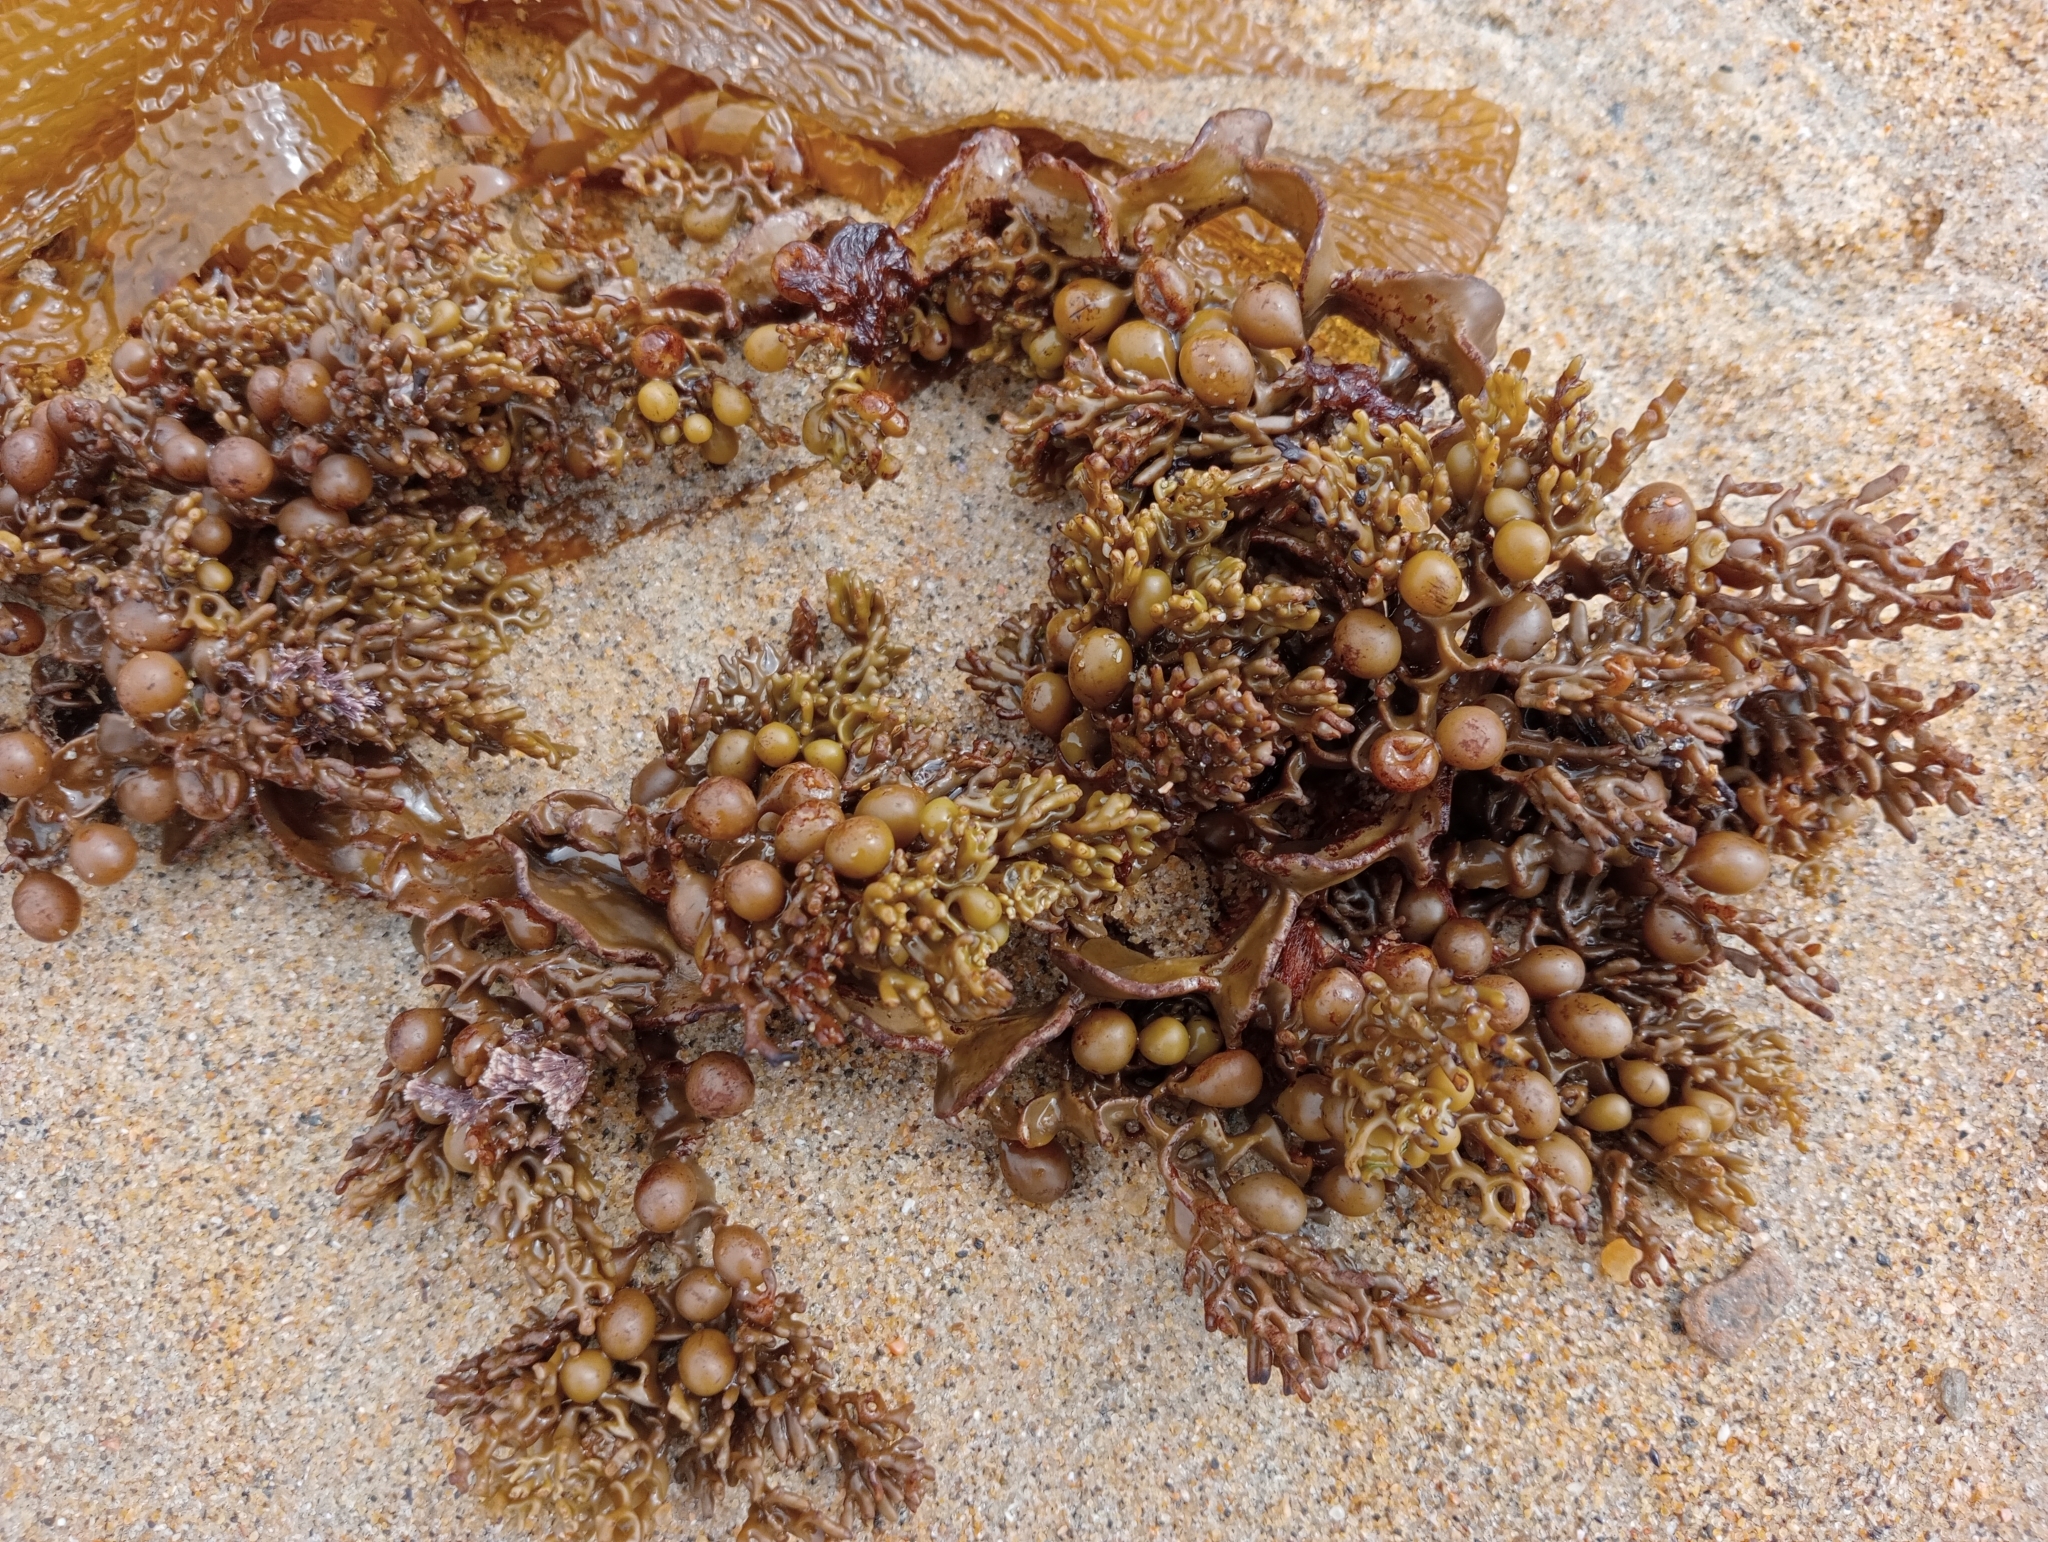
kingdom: Chromista
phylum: Ochrophyta
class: Phaeophyceae
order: Fucales
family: Sargassaceae
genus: Cystophora
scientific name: Cystophora scalaris
